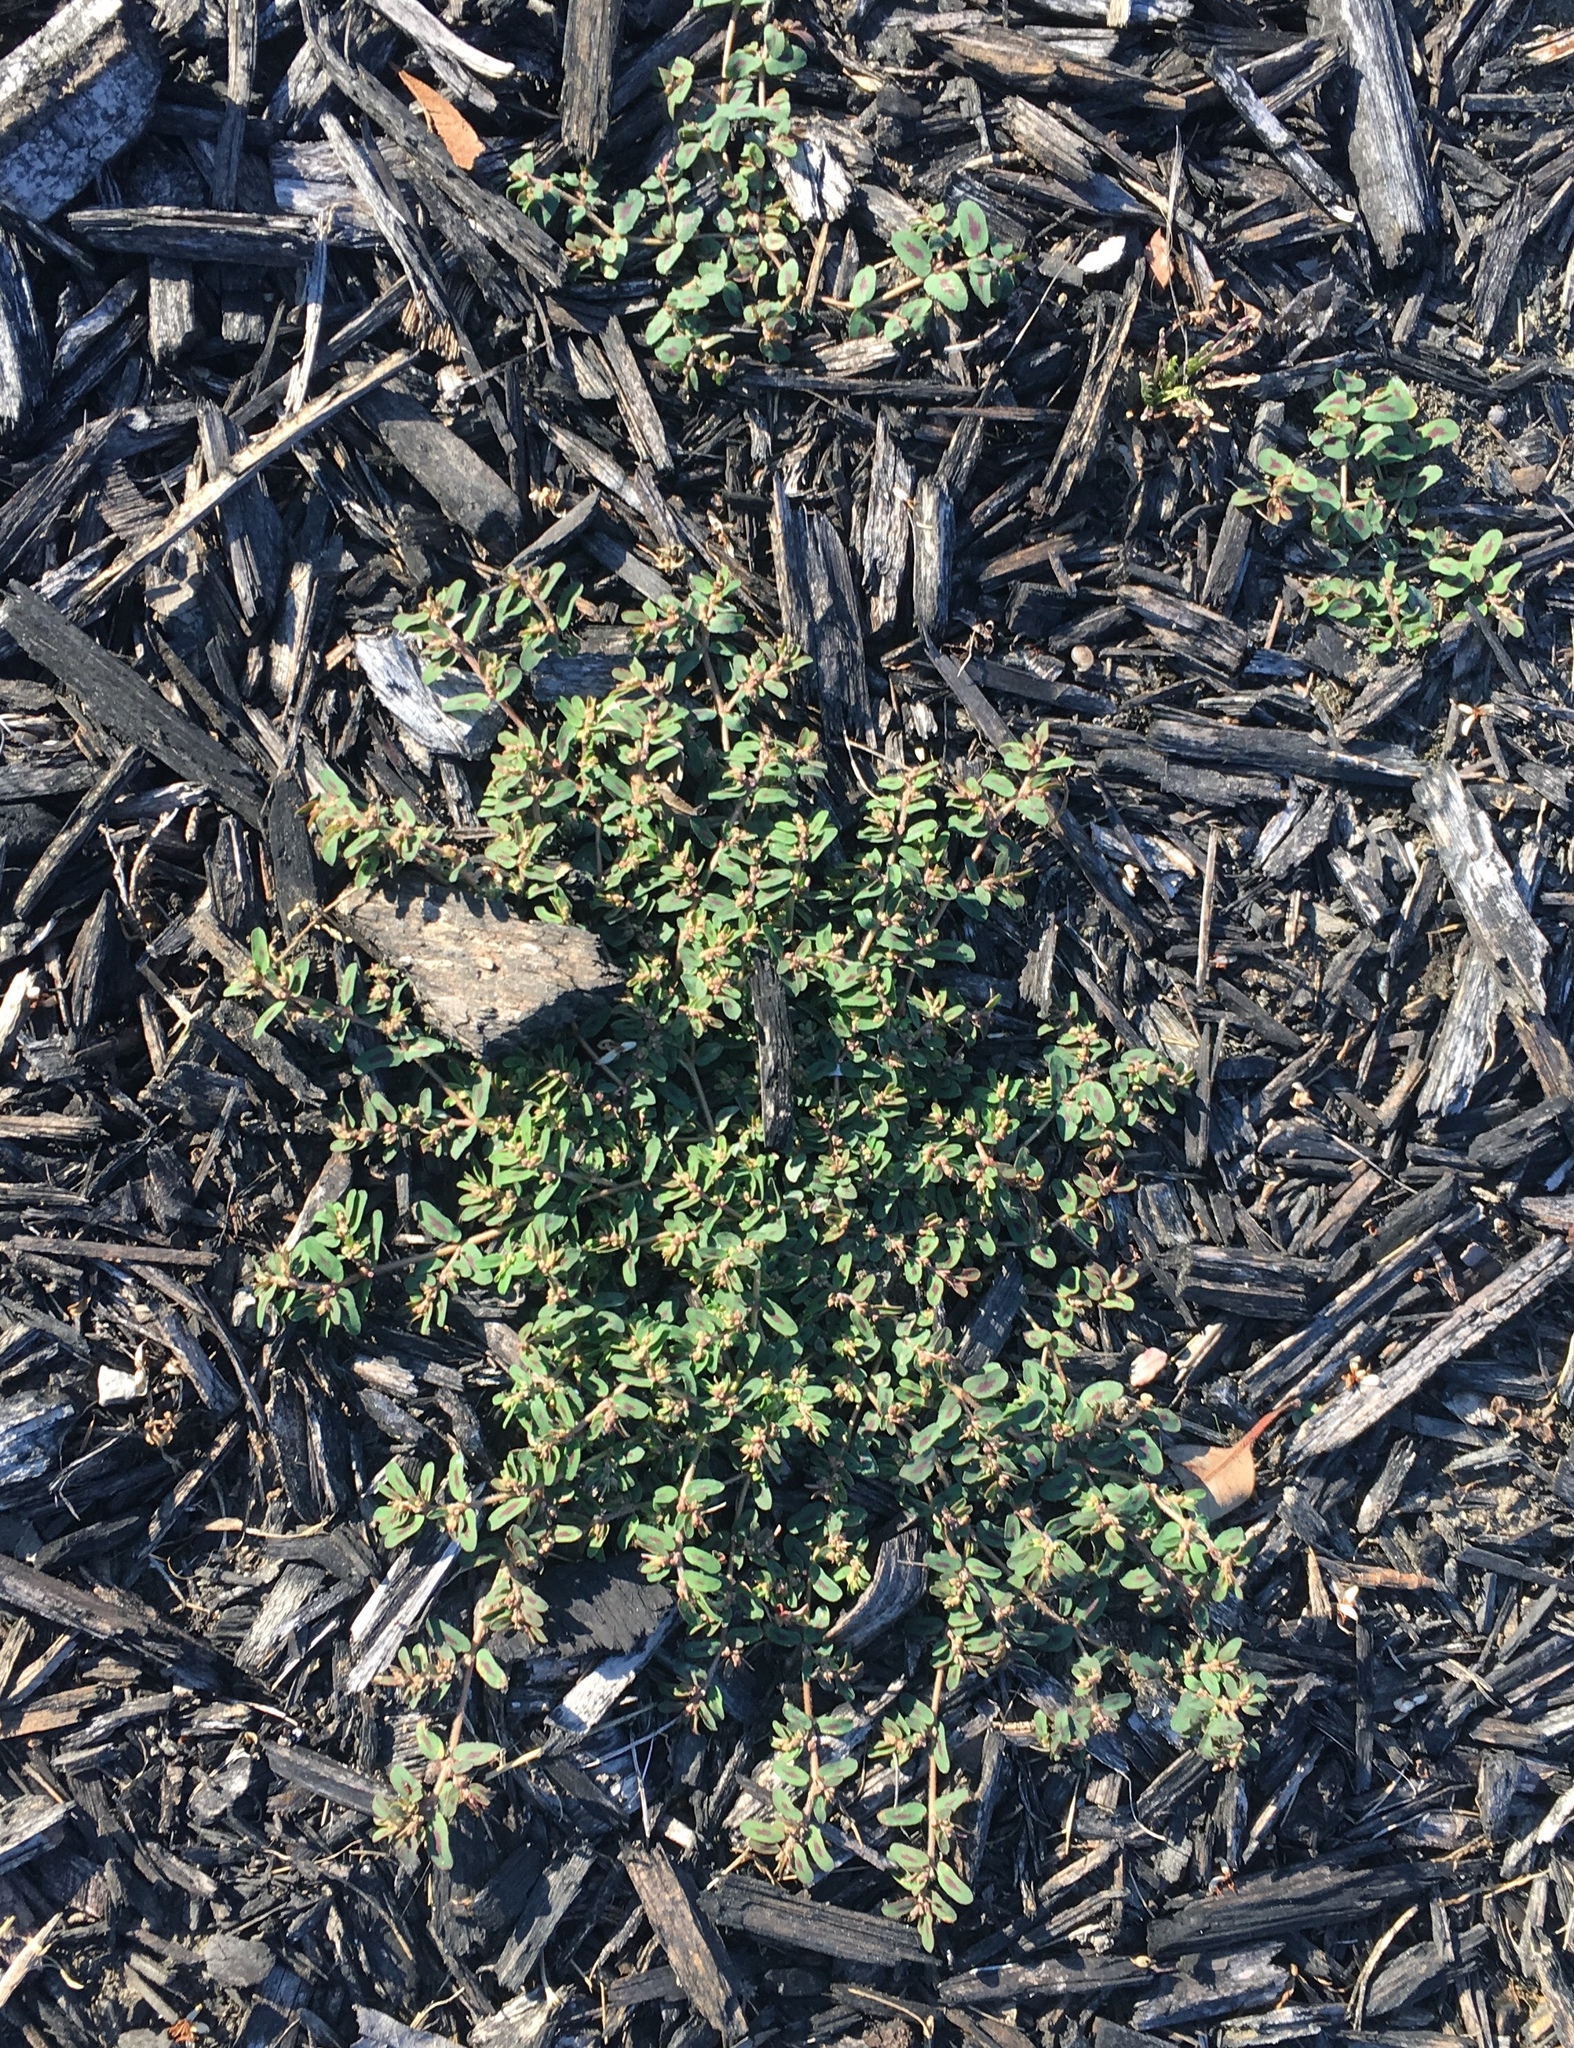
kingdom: Plantae
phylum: Tracheophyta
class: Magnoliopsida
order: Malpighiales
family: Euphorbiaceae
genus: Euphorbia
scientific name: Euphorbia maculata
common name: Spotted spurge
